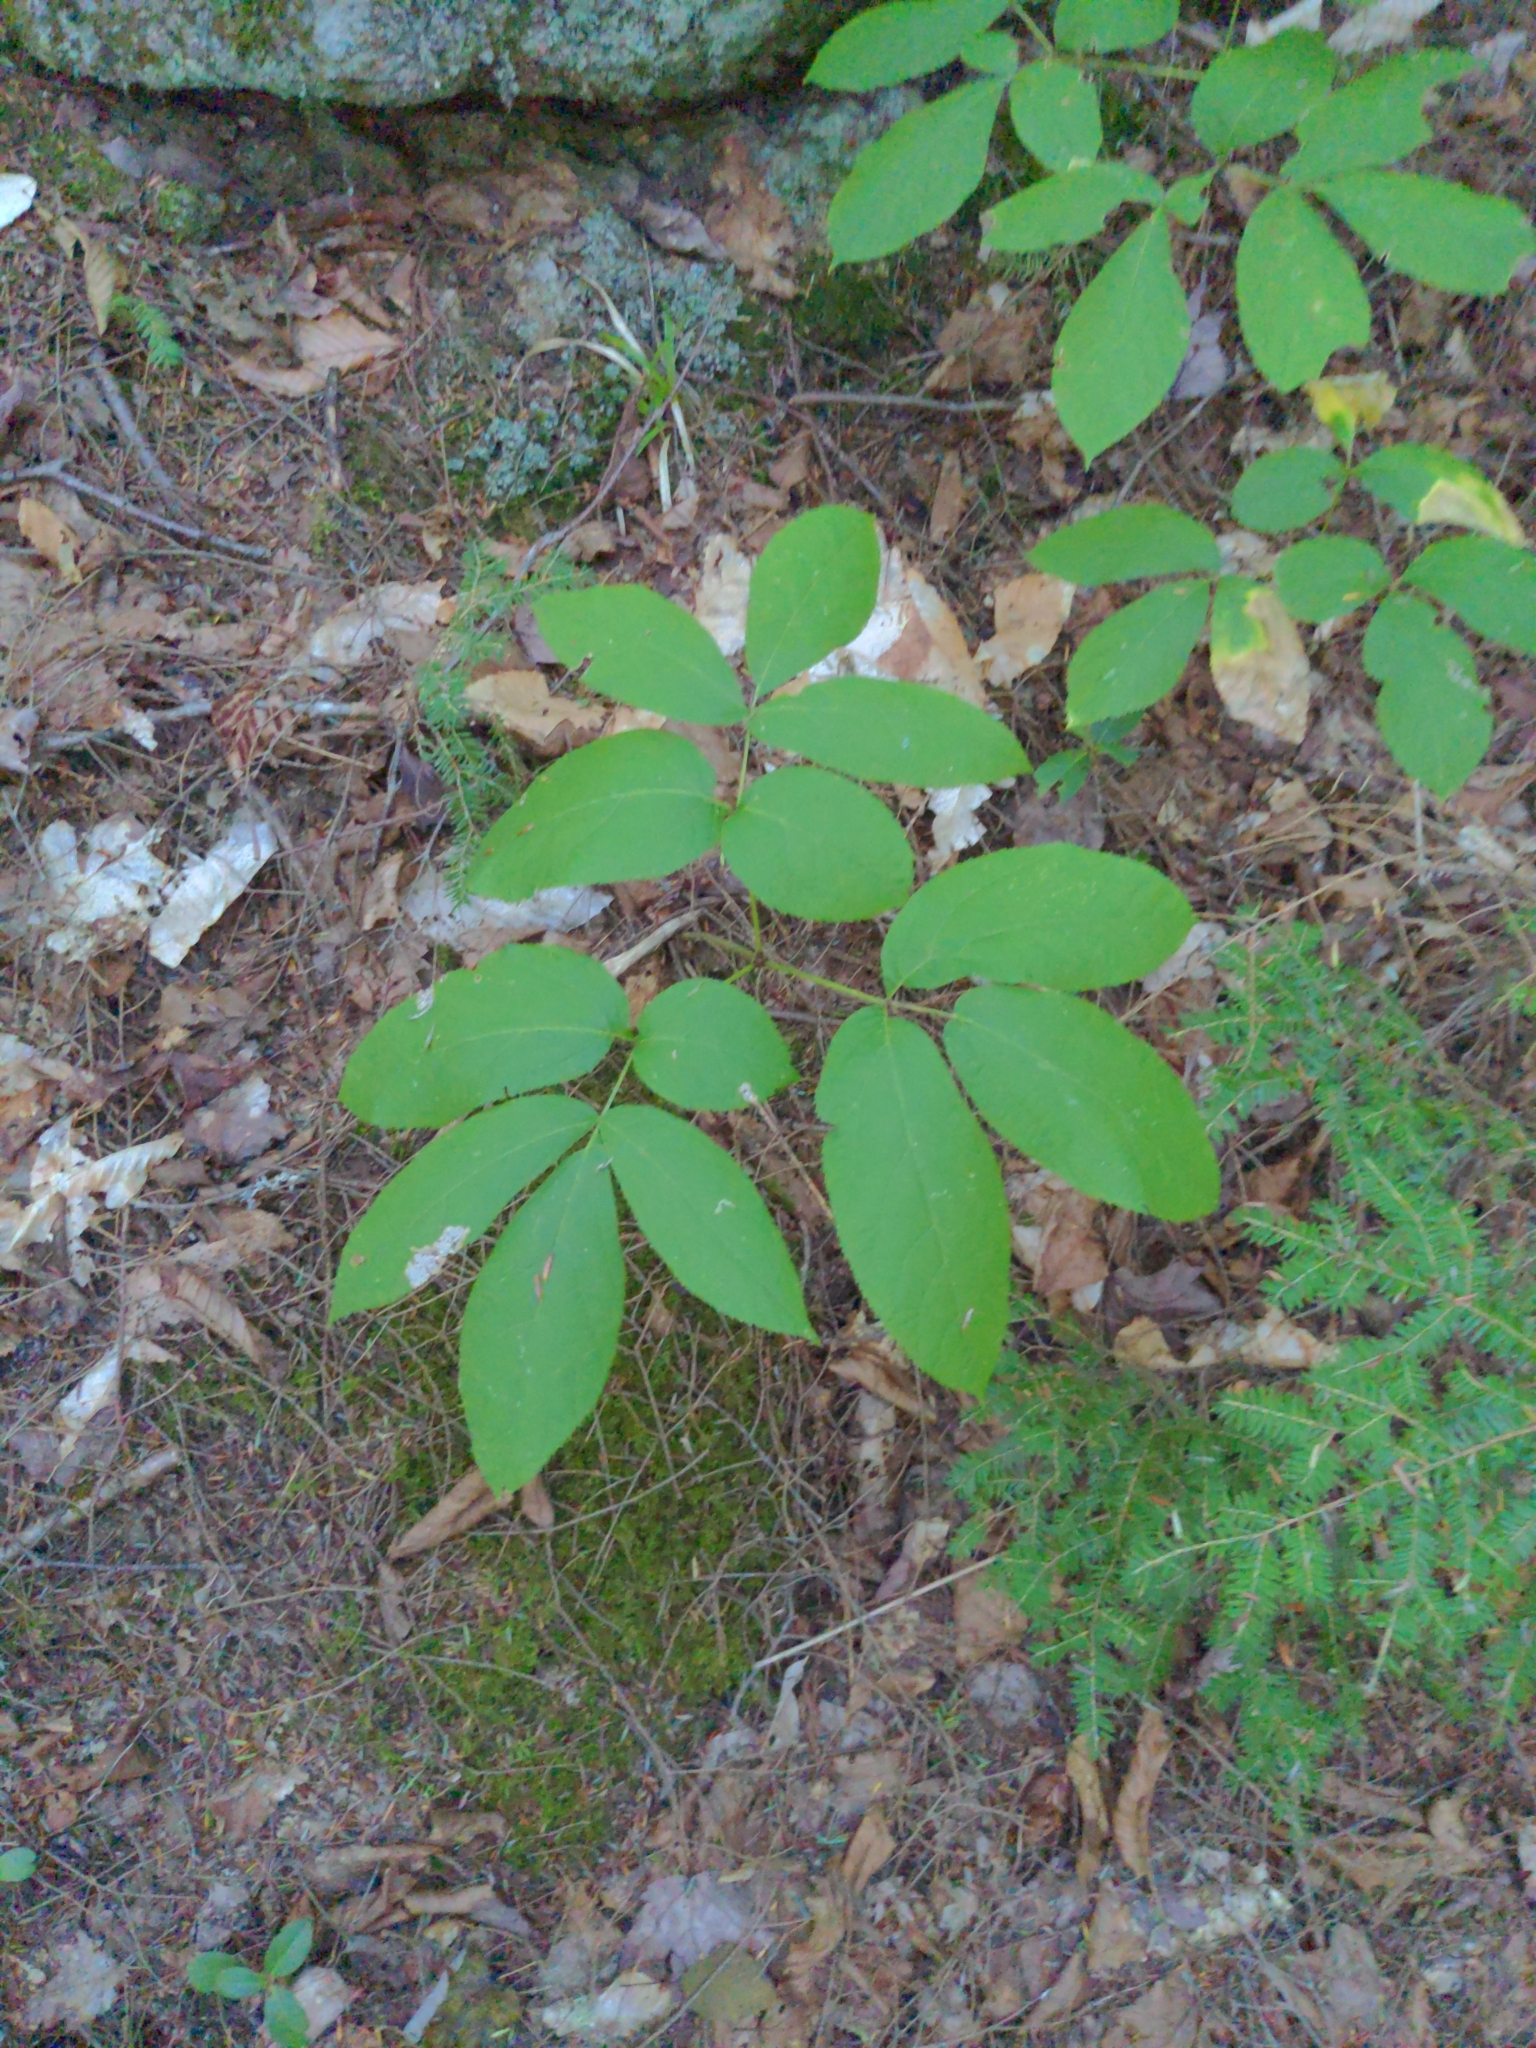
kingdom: Plantae
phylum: Tracheophyta
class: Magnoliopsida
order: Apiales
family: Araliaceae
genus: Aralia
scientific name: Aralia nudicaulis
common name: Wild sarsaparilla
